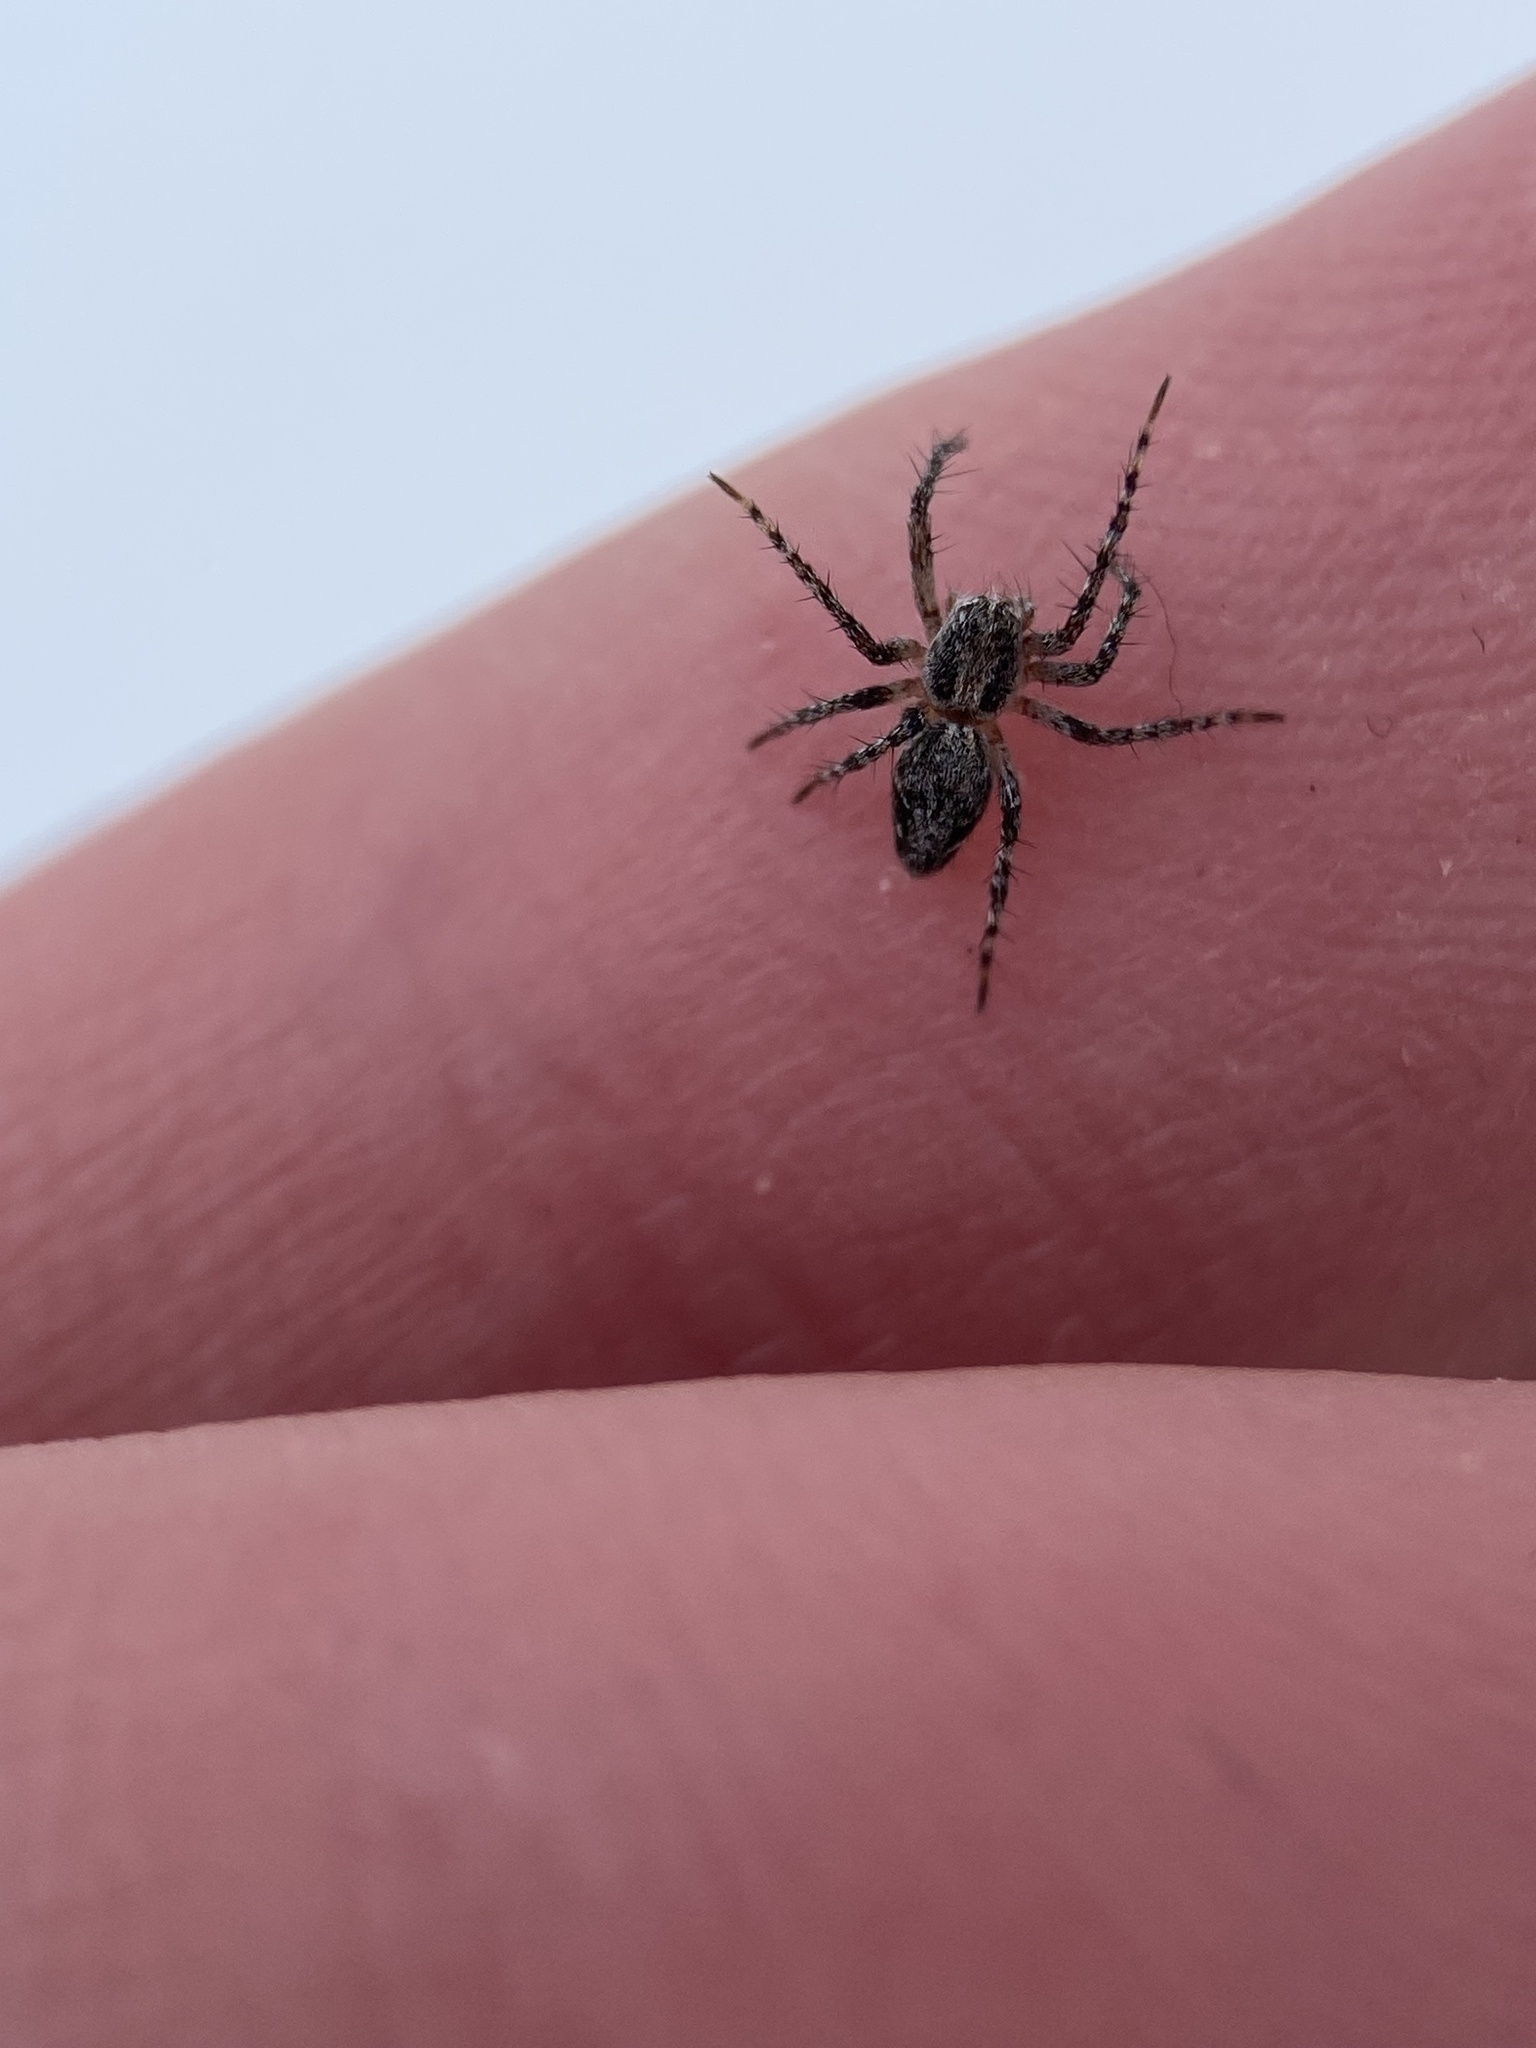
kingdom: Animalia
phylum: Arthropoda
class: Arachnida
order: Araneae
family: Oxyopidae
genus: Oxyopes
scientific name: Oxyopes scalaris
